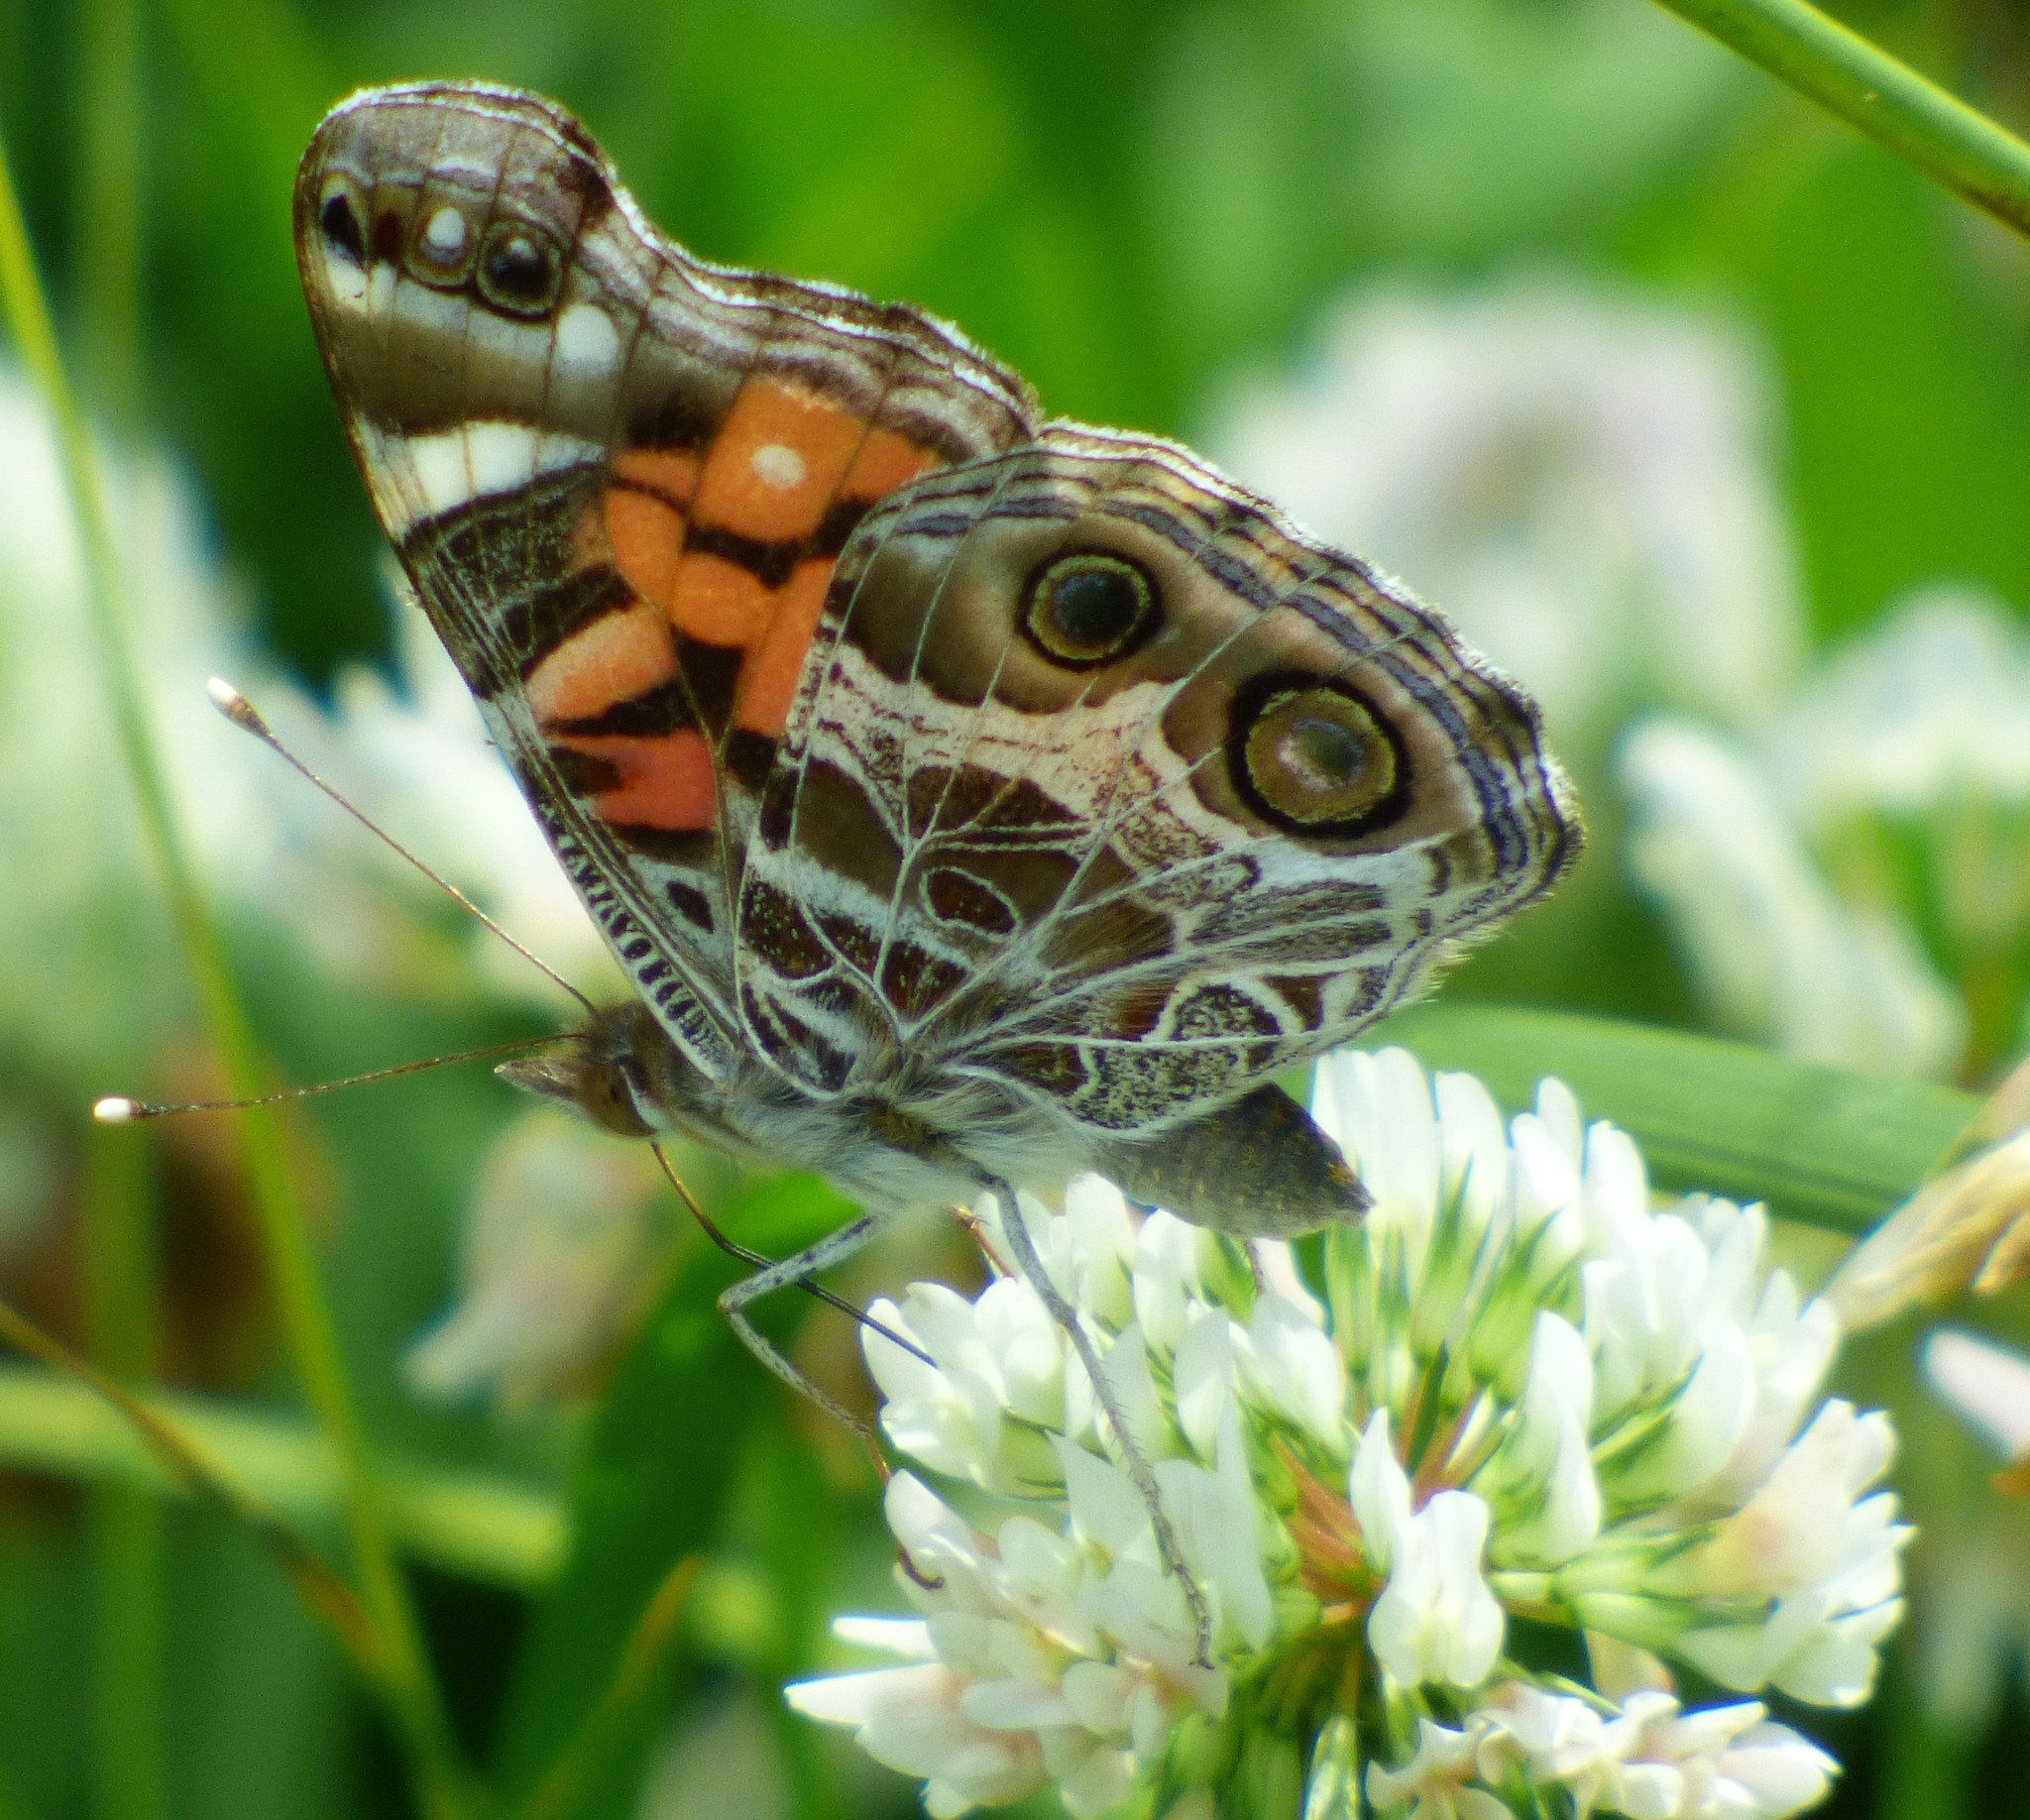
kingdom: Animalia
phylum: Arthropoda
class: Insecta
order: Lepidoptera
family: Nymphalidae
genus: Vanessa
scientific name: Vanessa virginiensis
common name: American lady
